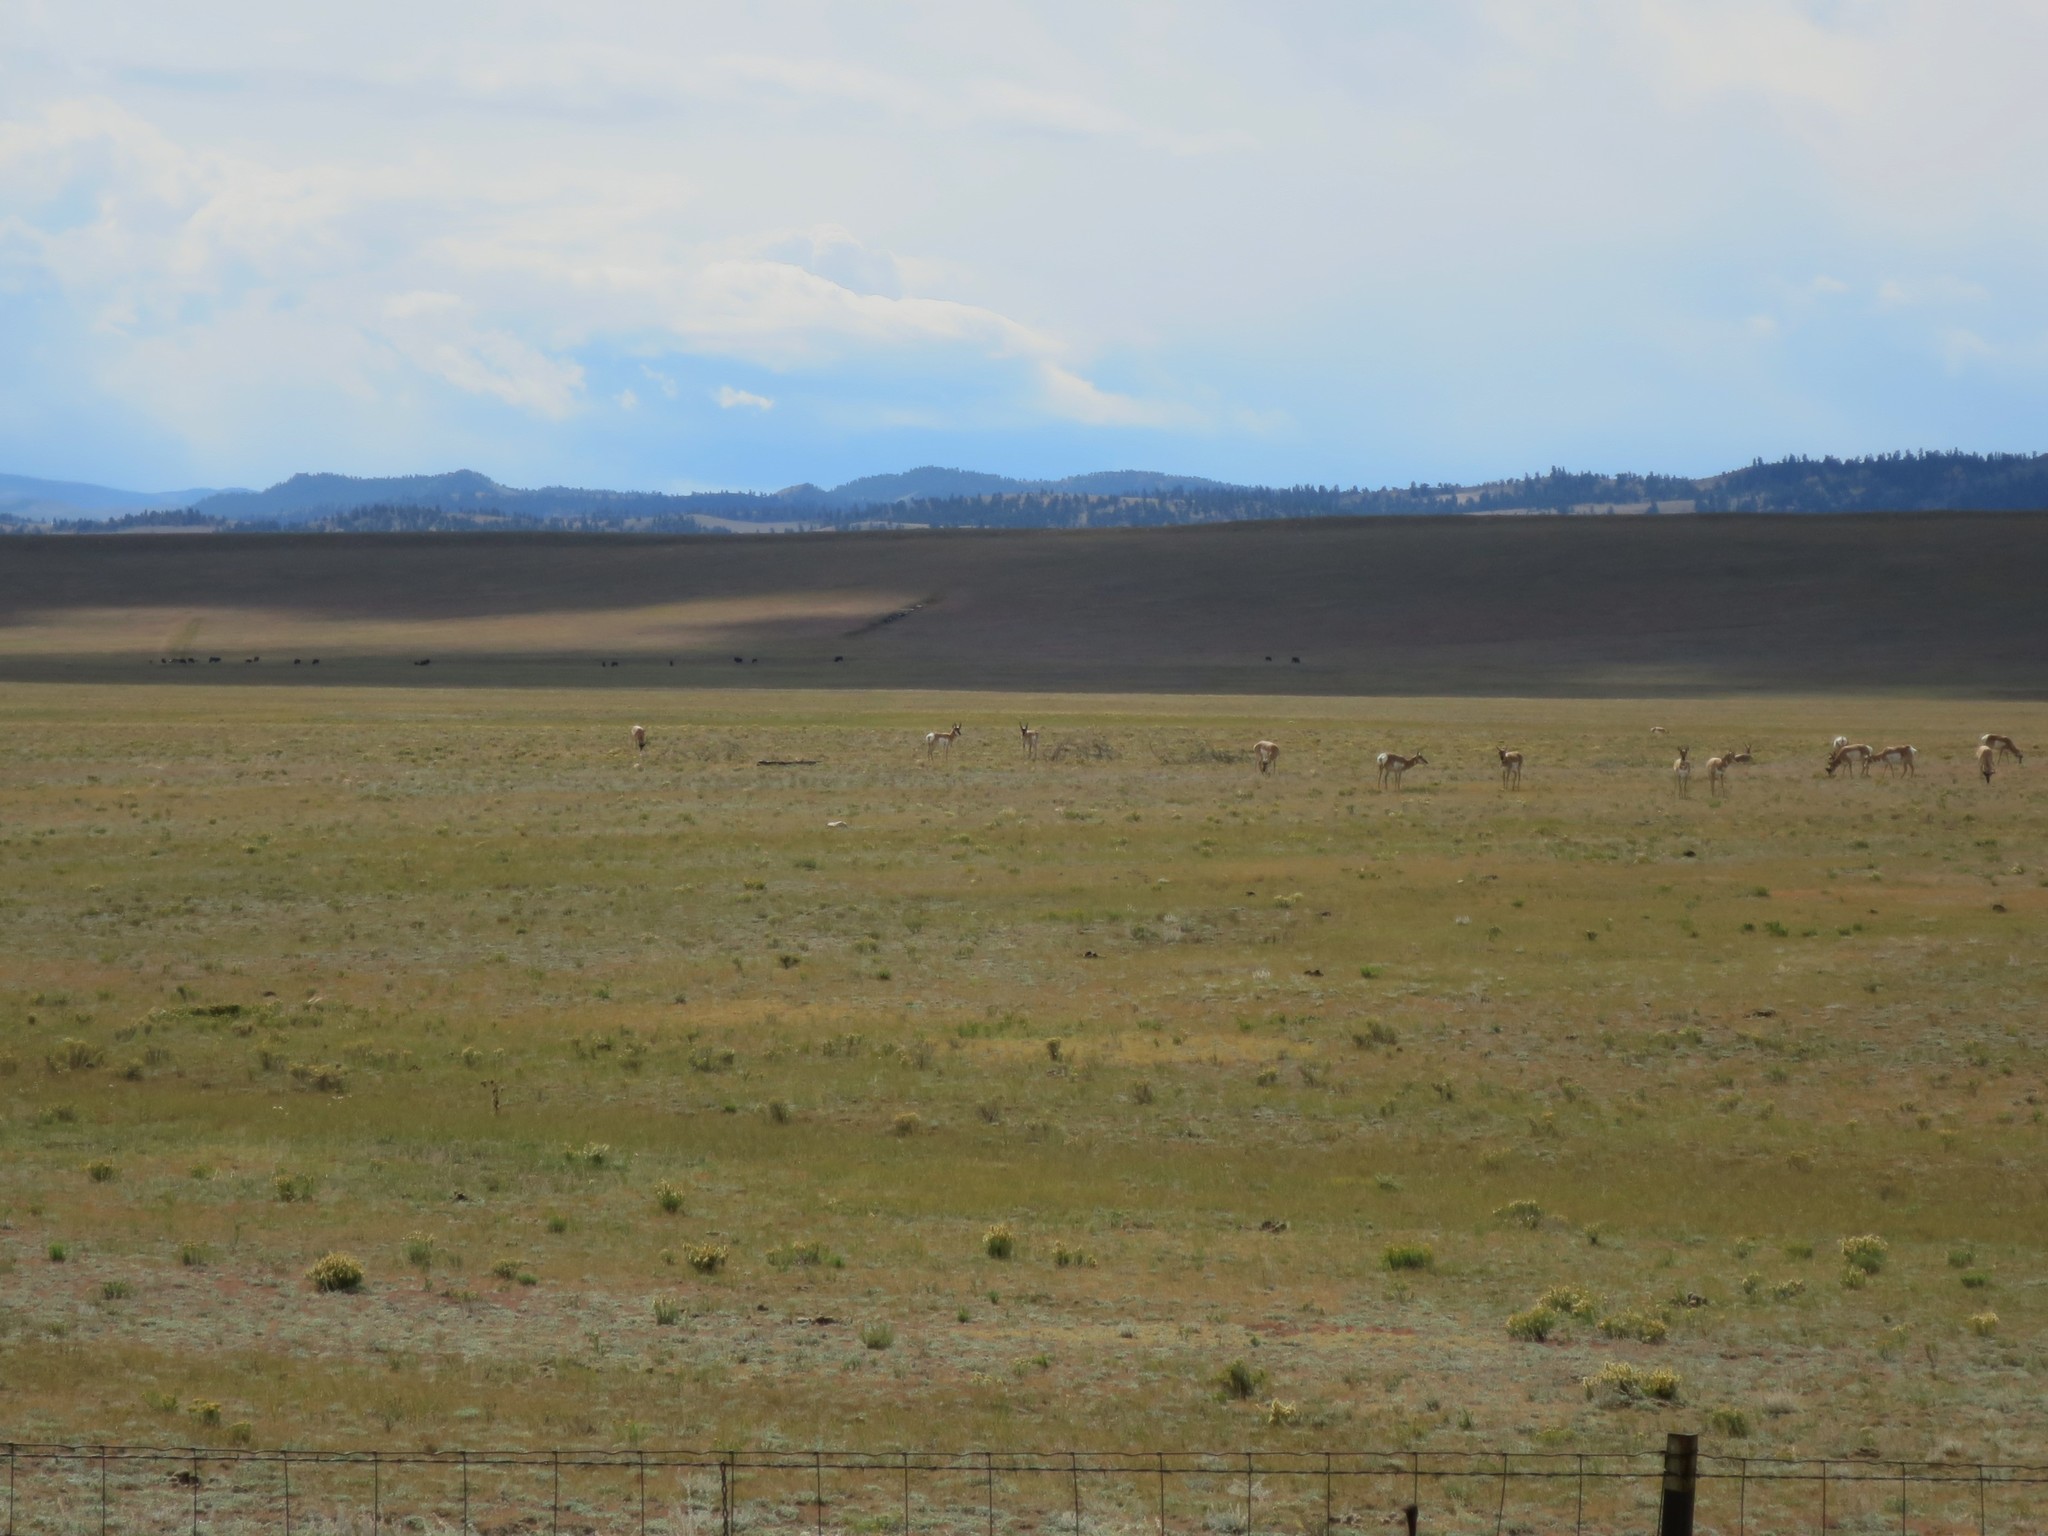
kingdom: Animalia
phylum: Chordata
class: Mammalia
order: Artiodactyla
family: Antilocapridae
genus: Antilocapra
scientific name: Antilocapra americana
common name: Pronghorn
